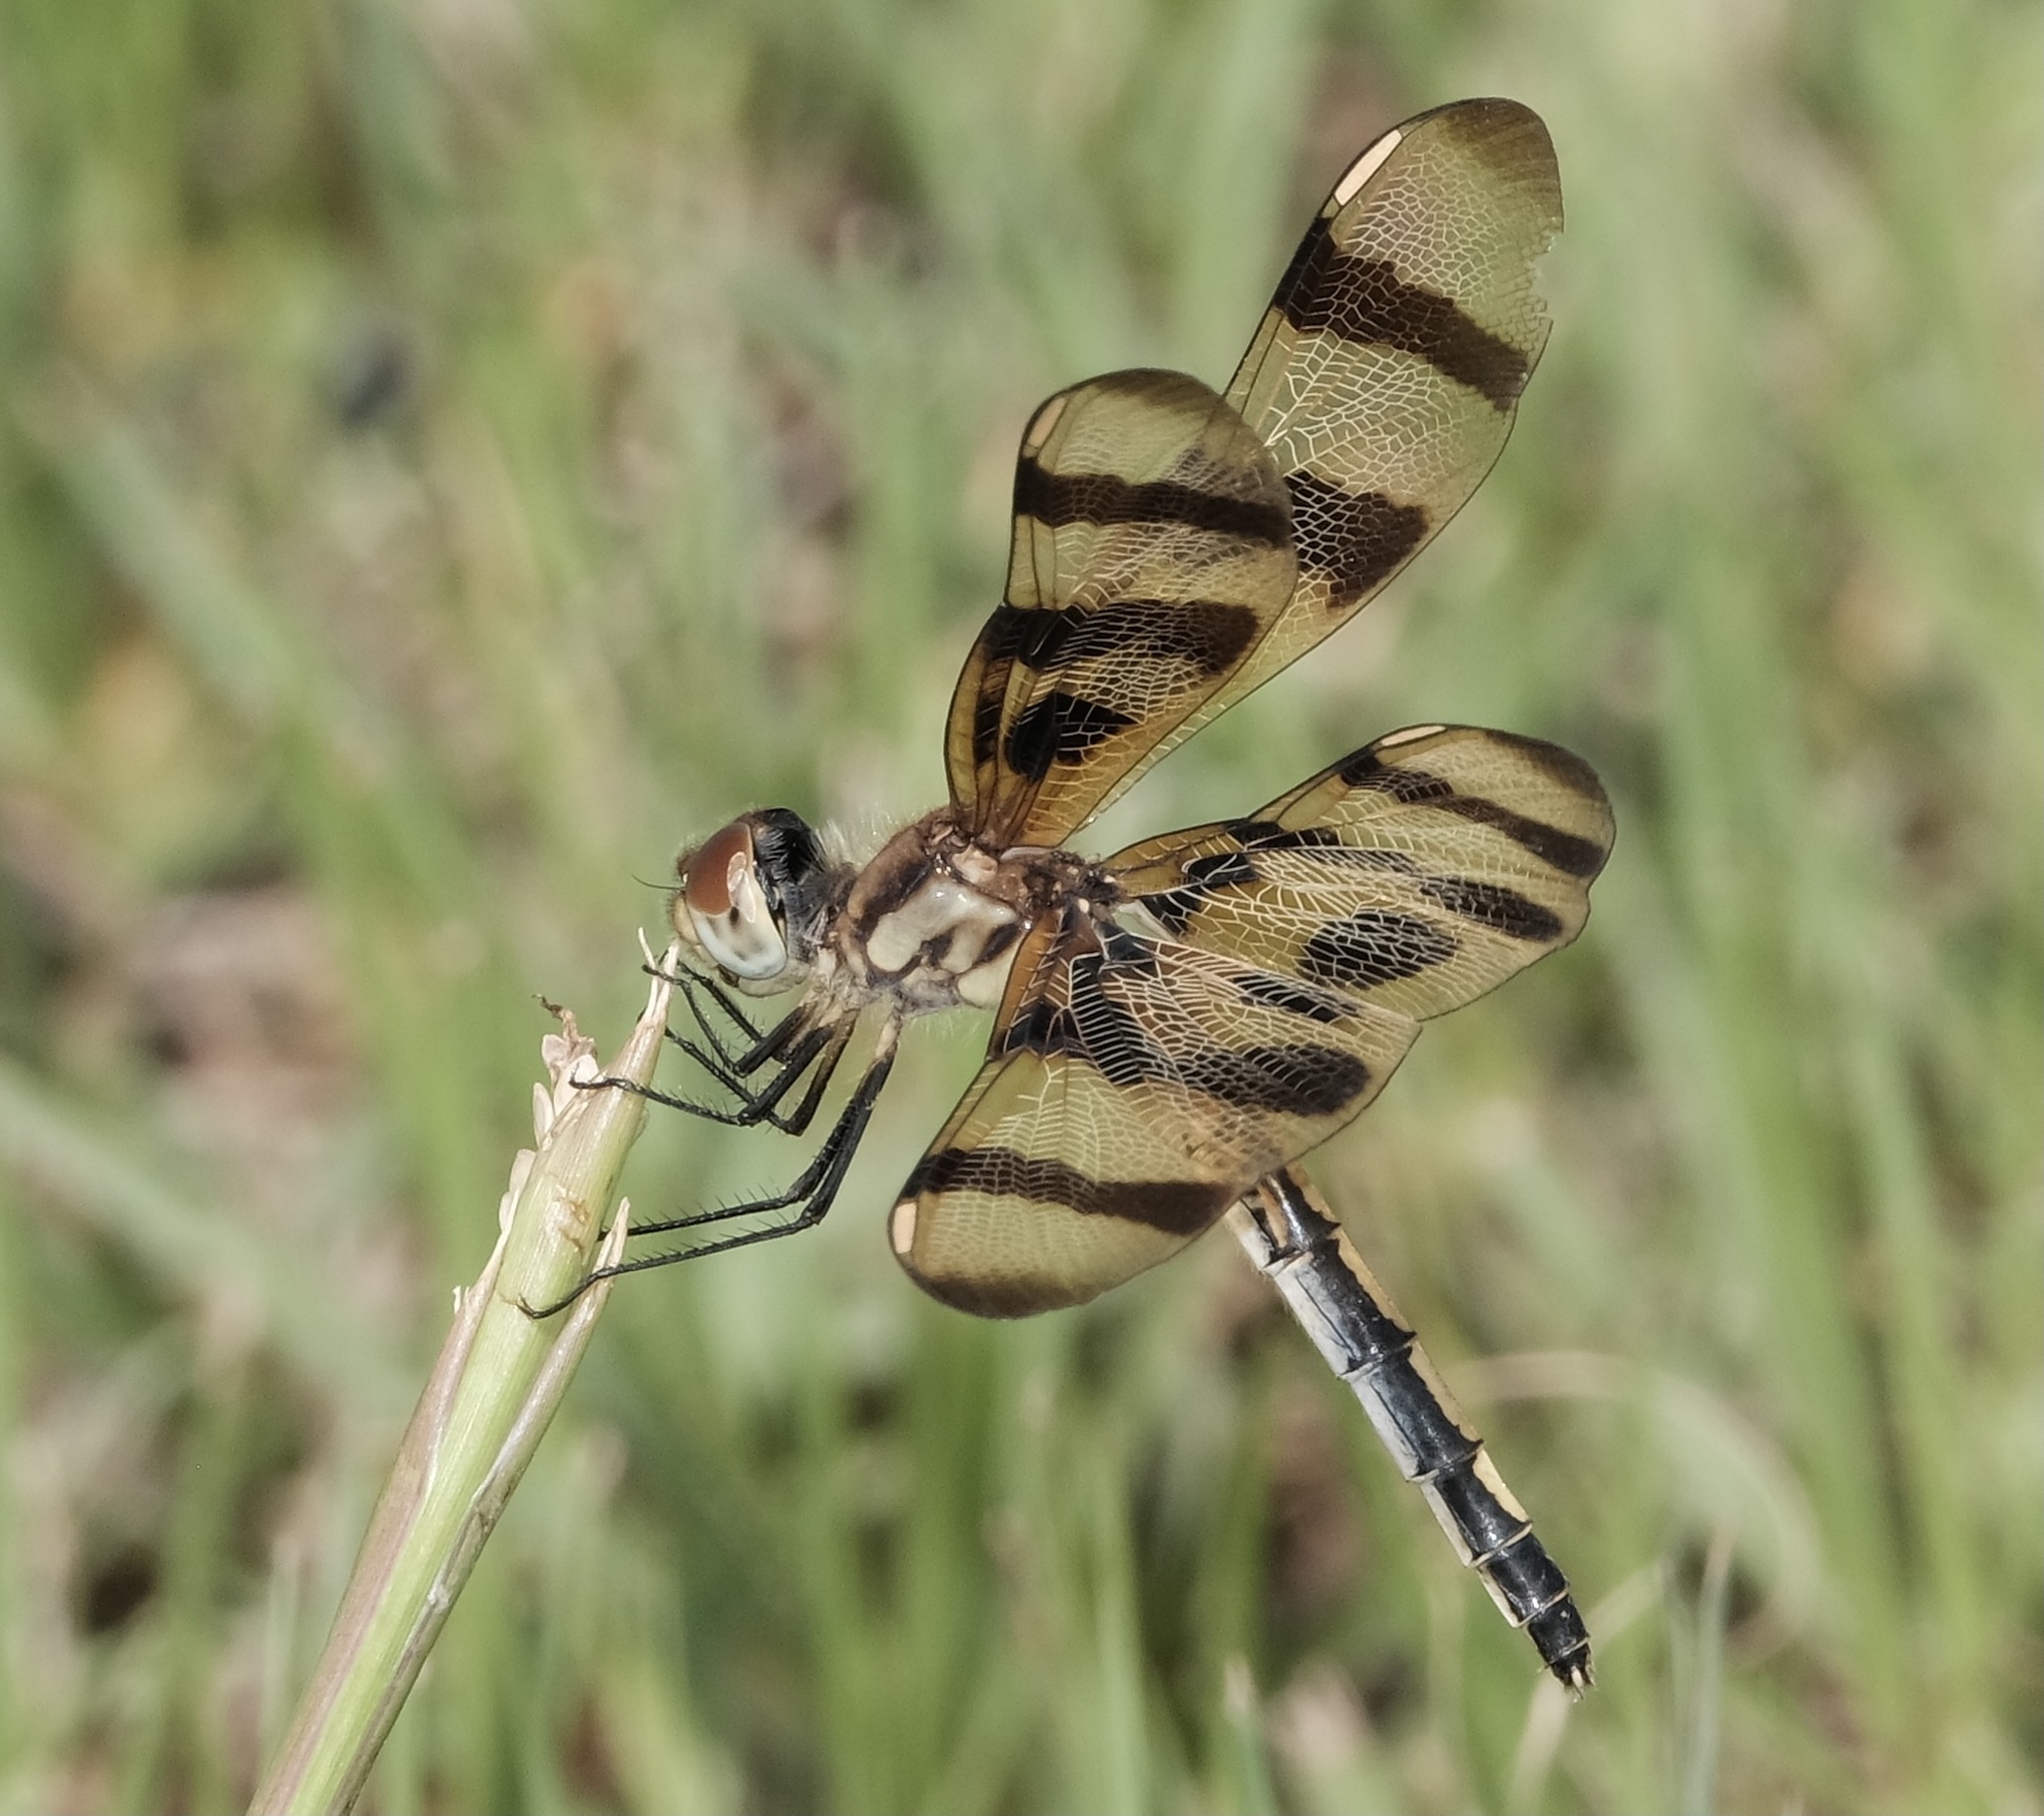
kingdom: Animalia
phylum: Arthropoda
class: Insecta
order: Odonata
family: Libellulidae
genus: Celithemis
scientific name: Celithemis eponina
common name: Halloween pennant
